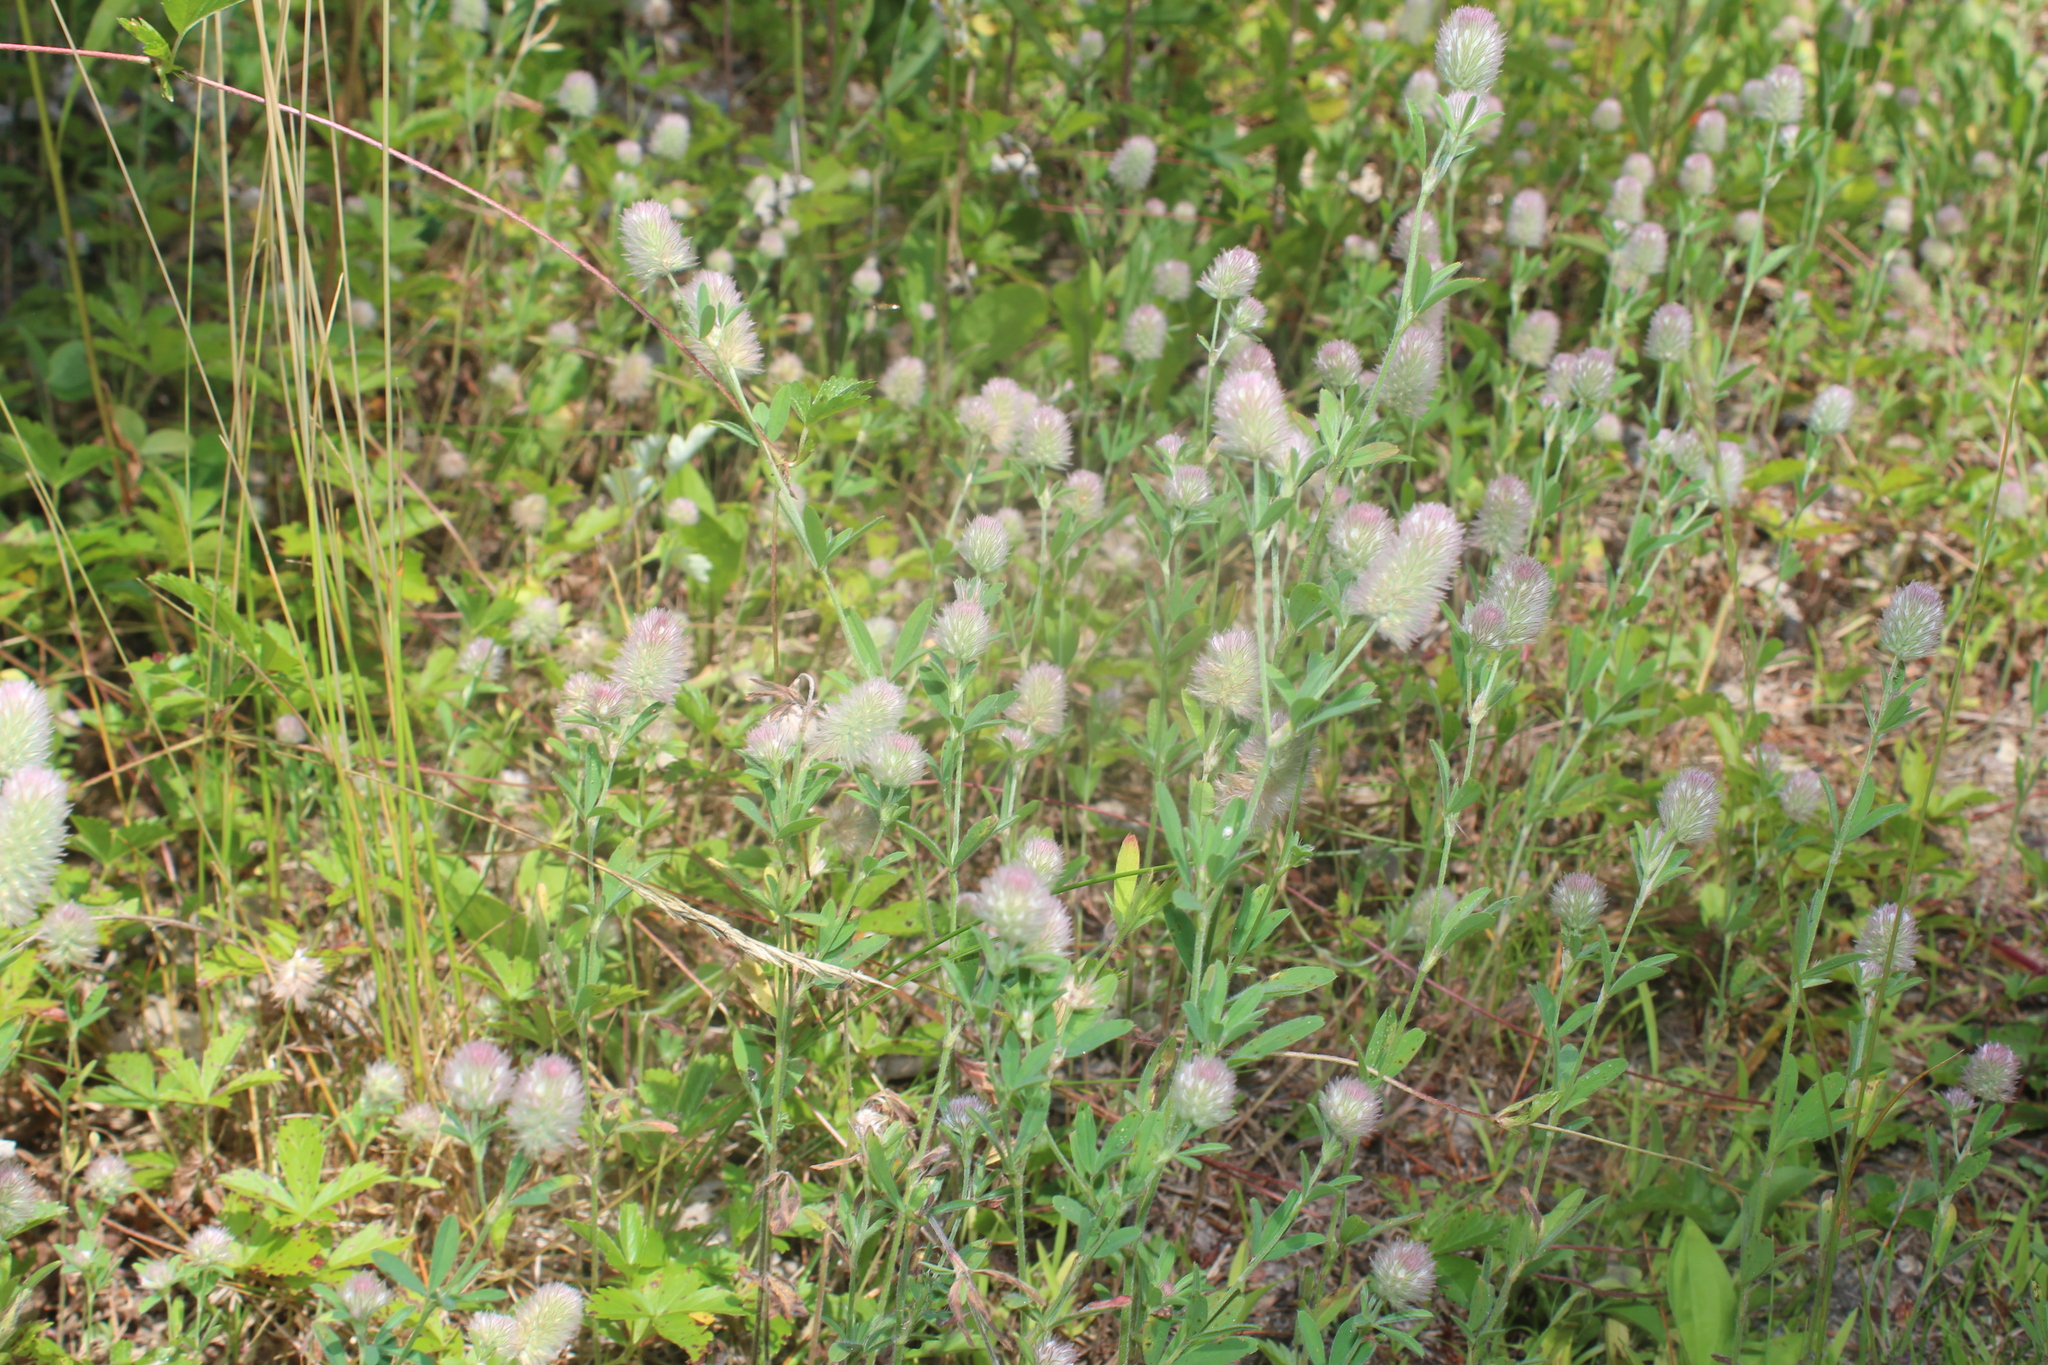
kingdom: Plantae
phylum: Tracheophyta
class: Magnoliopsida
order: Fabales
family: Fabaceae
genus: Trifolium
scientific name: Trifolium arvense
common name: Hare's-foot clover
